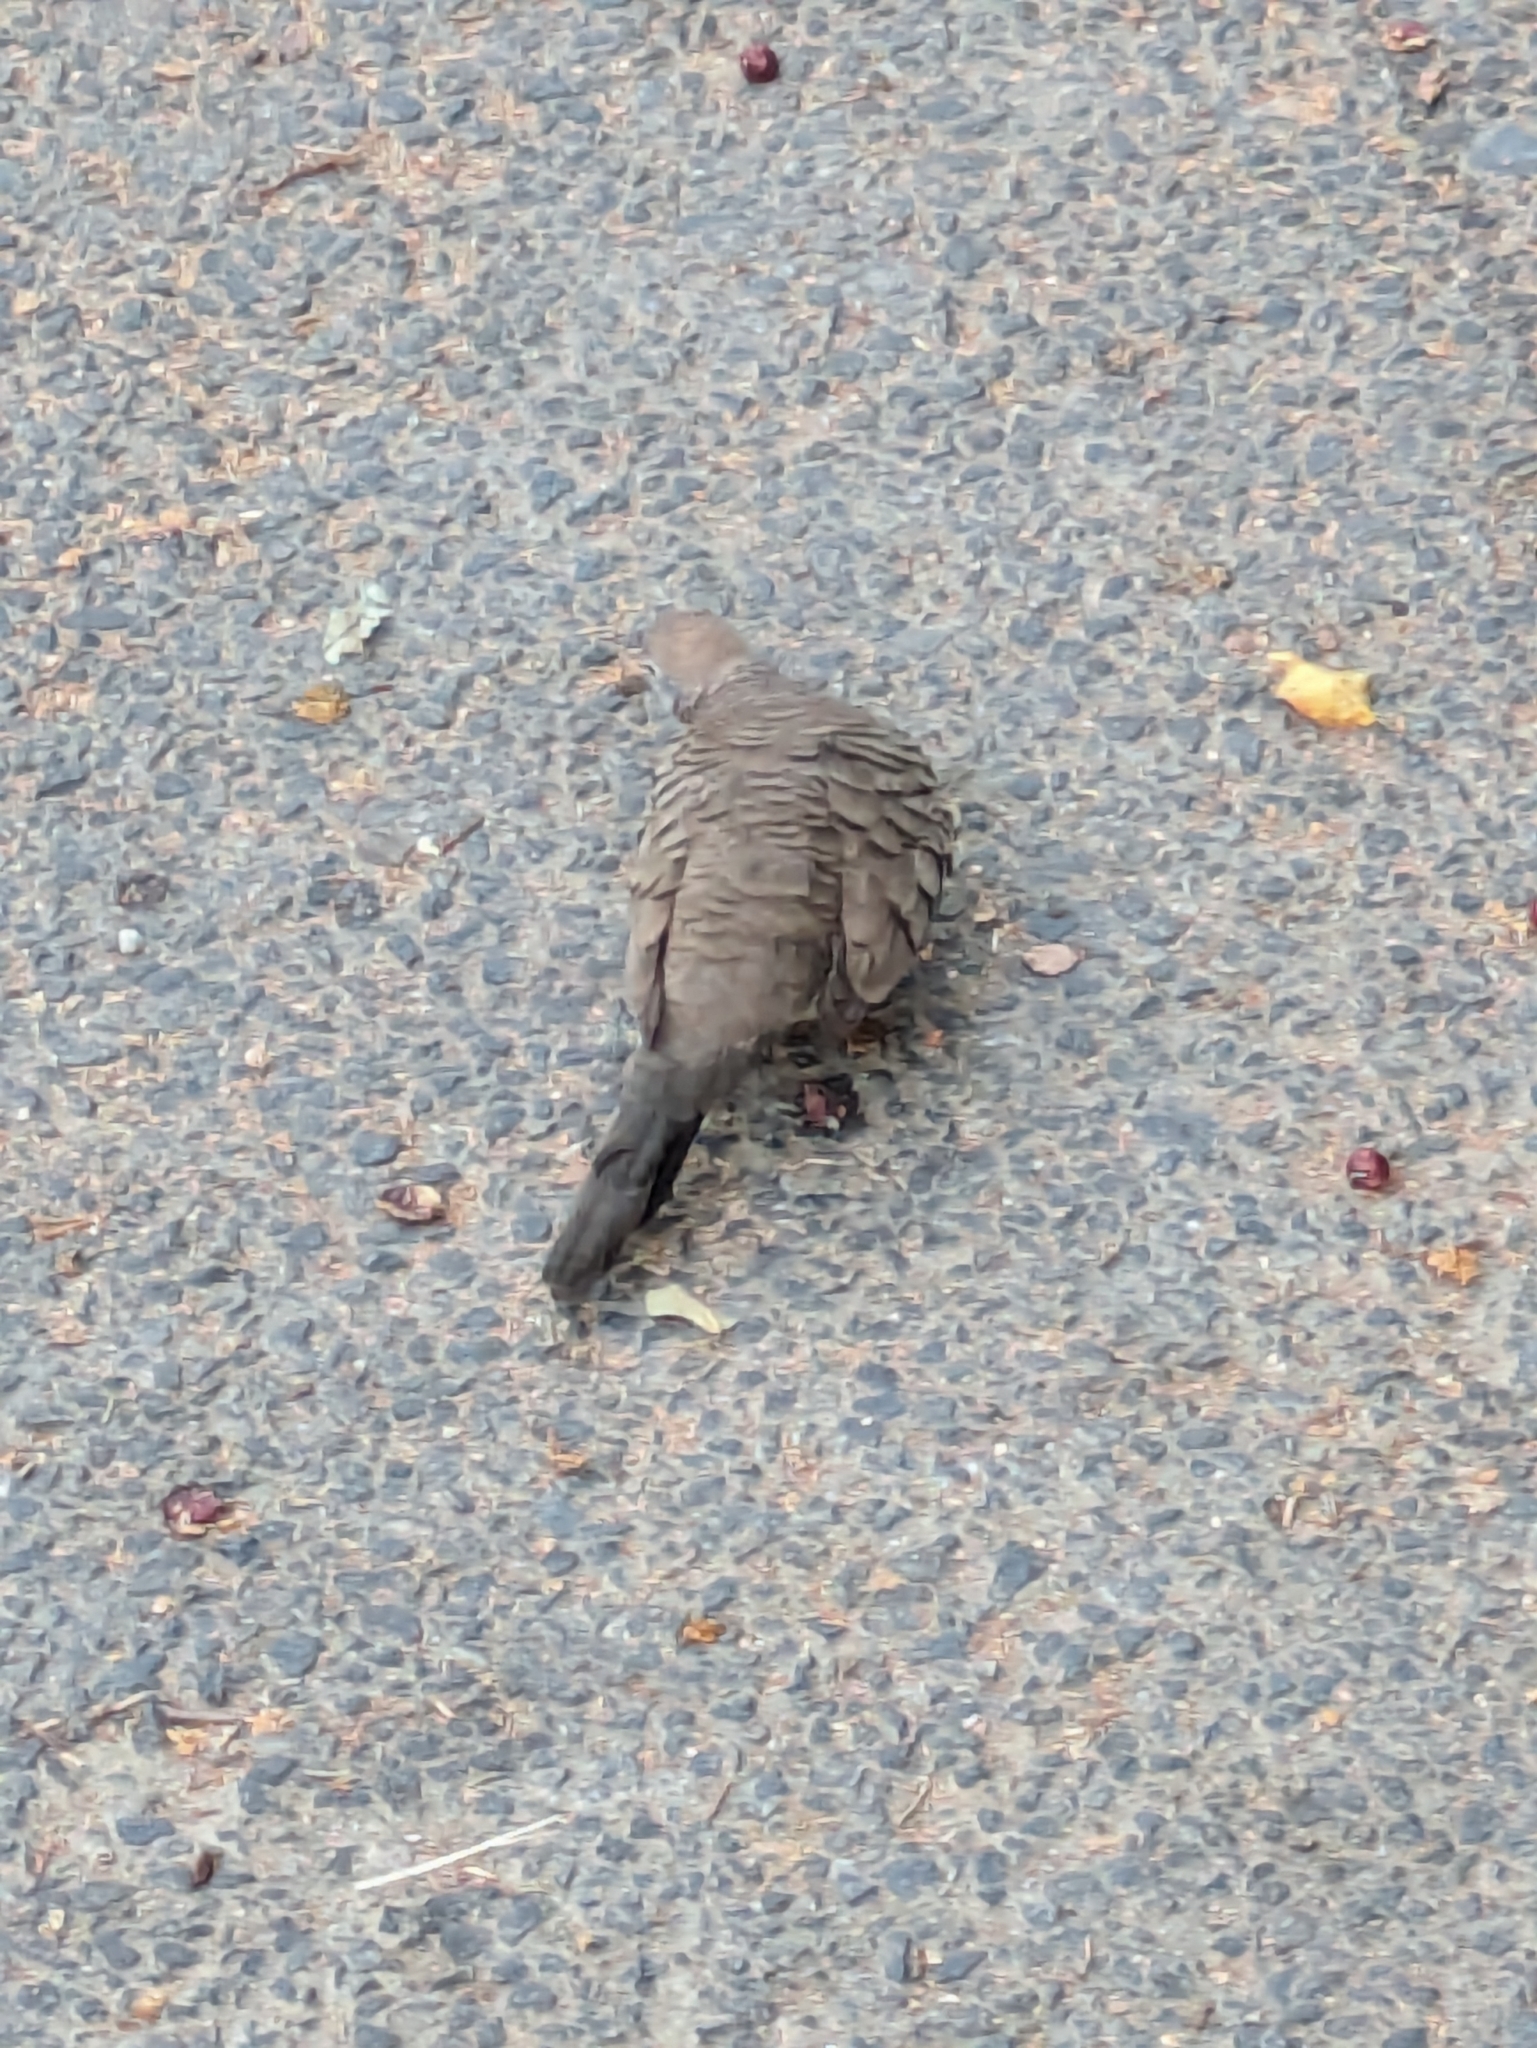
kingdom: Animalia
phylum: Chordata
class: Aves
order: Columbiformes
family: Columbidae
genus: Geopelia
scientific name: Geopelia striata
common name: Zebra dove
